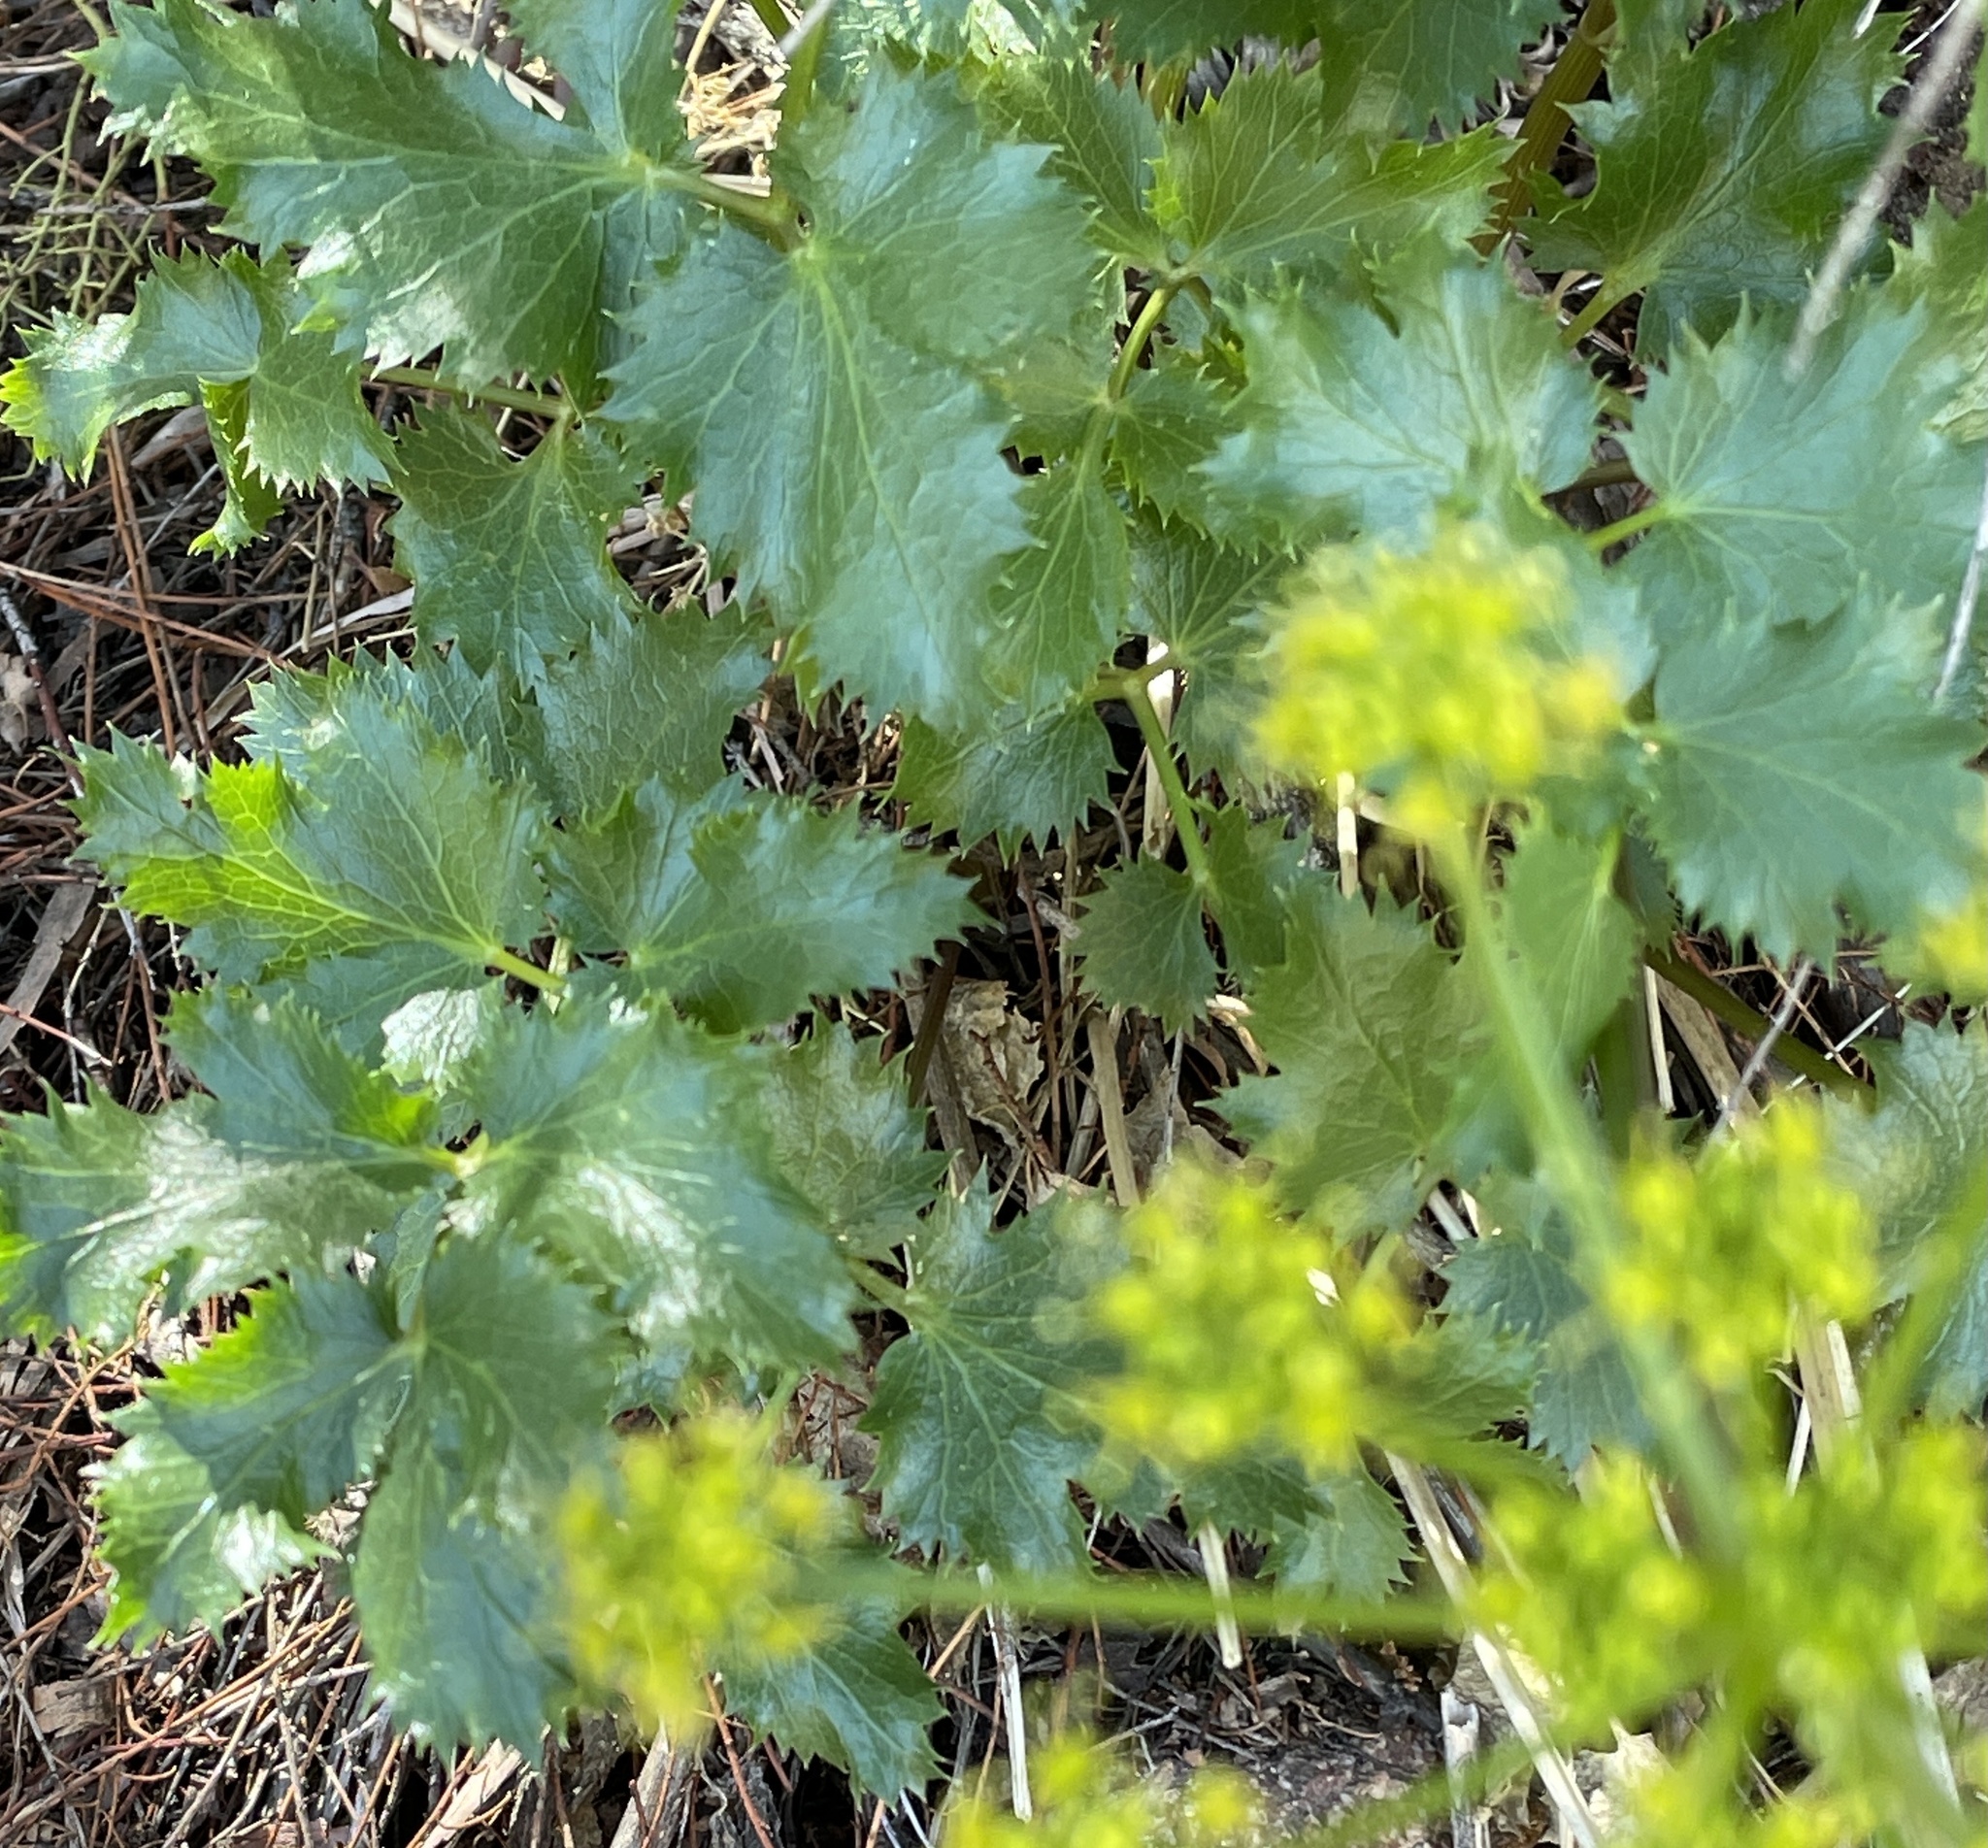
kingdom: Plantae
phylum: Tracheophyta
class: Magnoliopsida
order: Apiales
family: Apiaceae
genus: Tauschia
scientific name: Tauschia arguta
